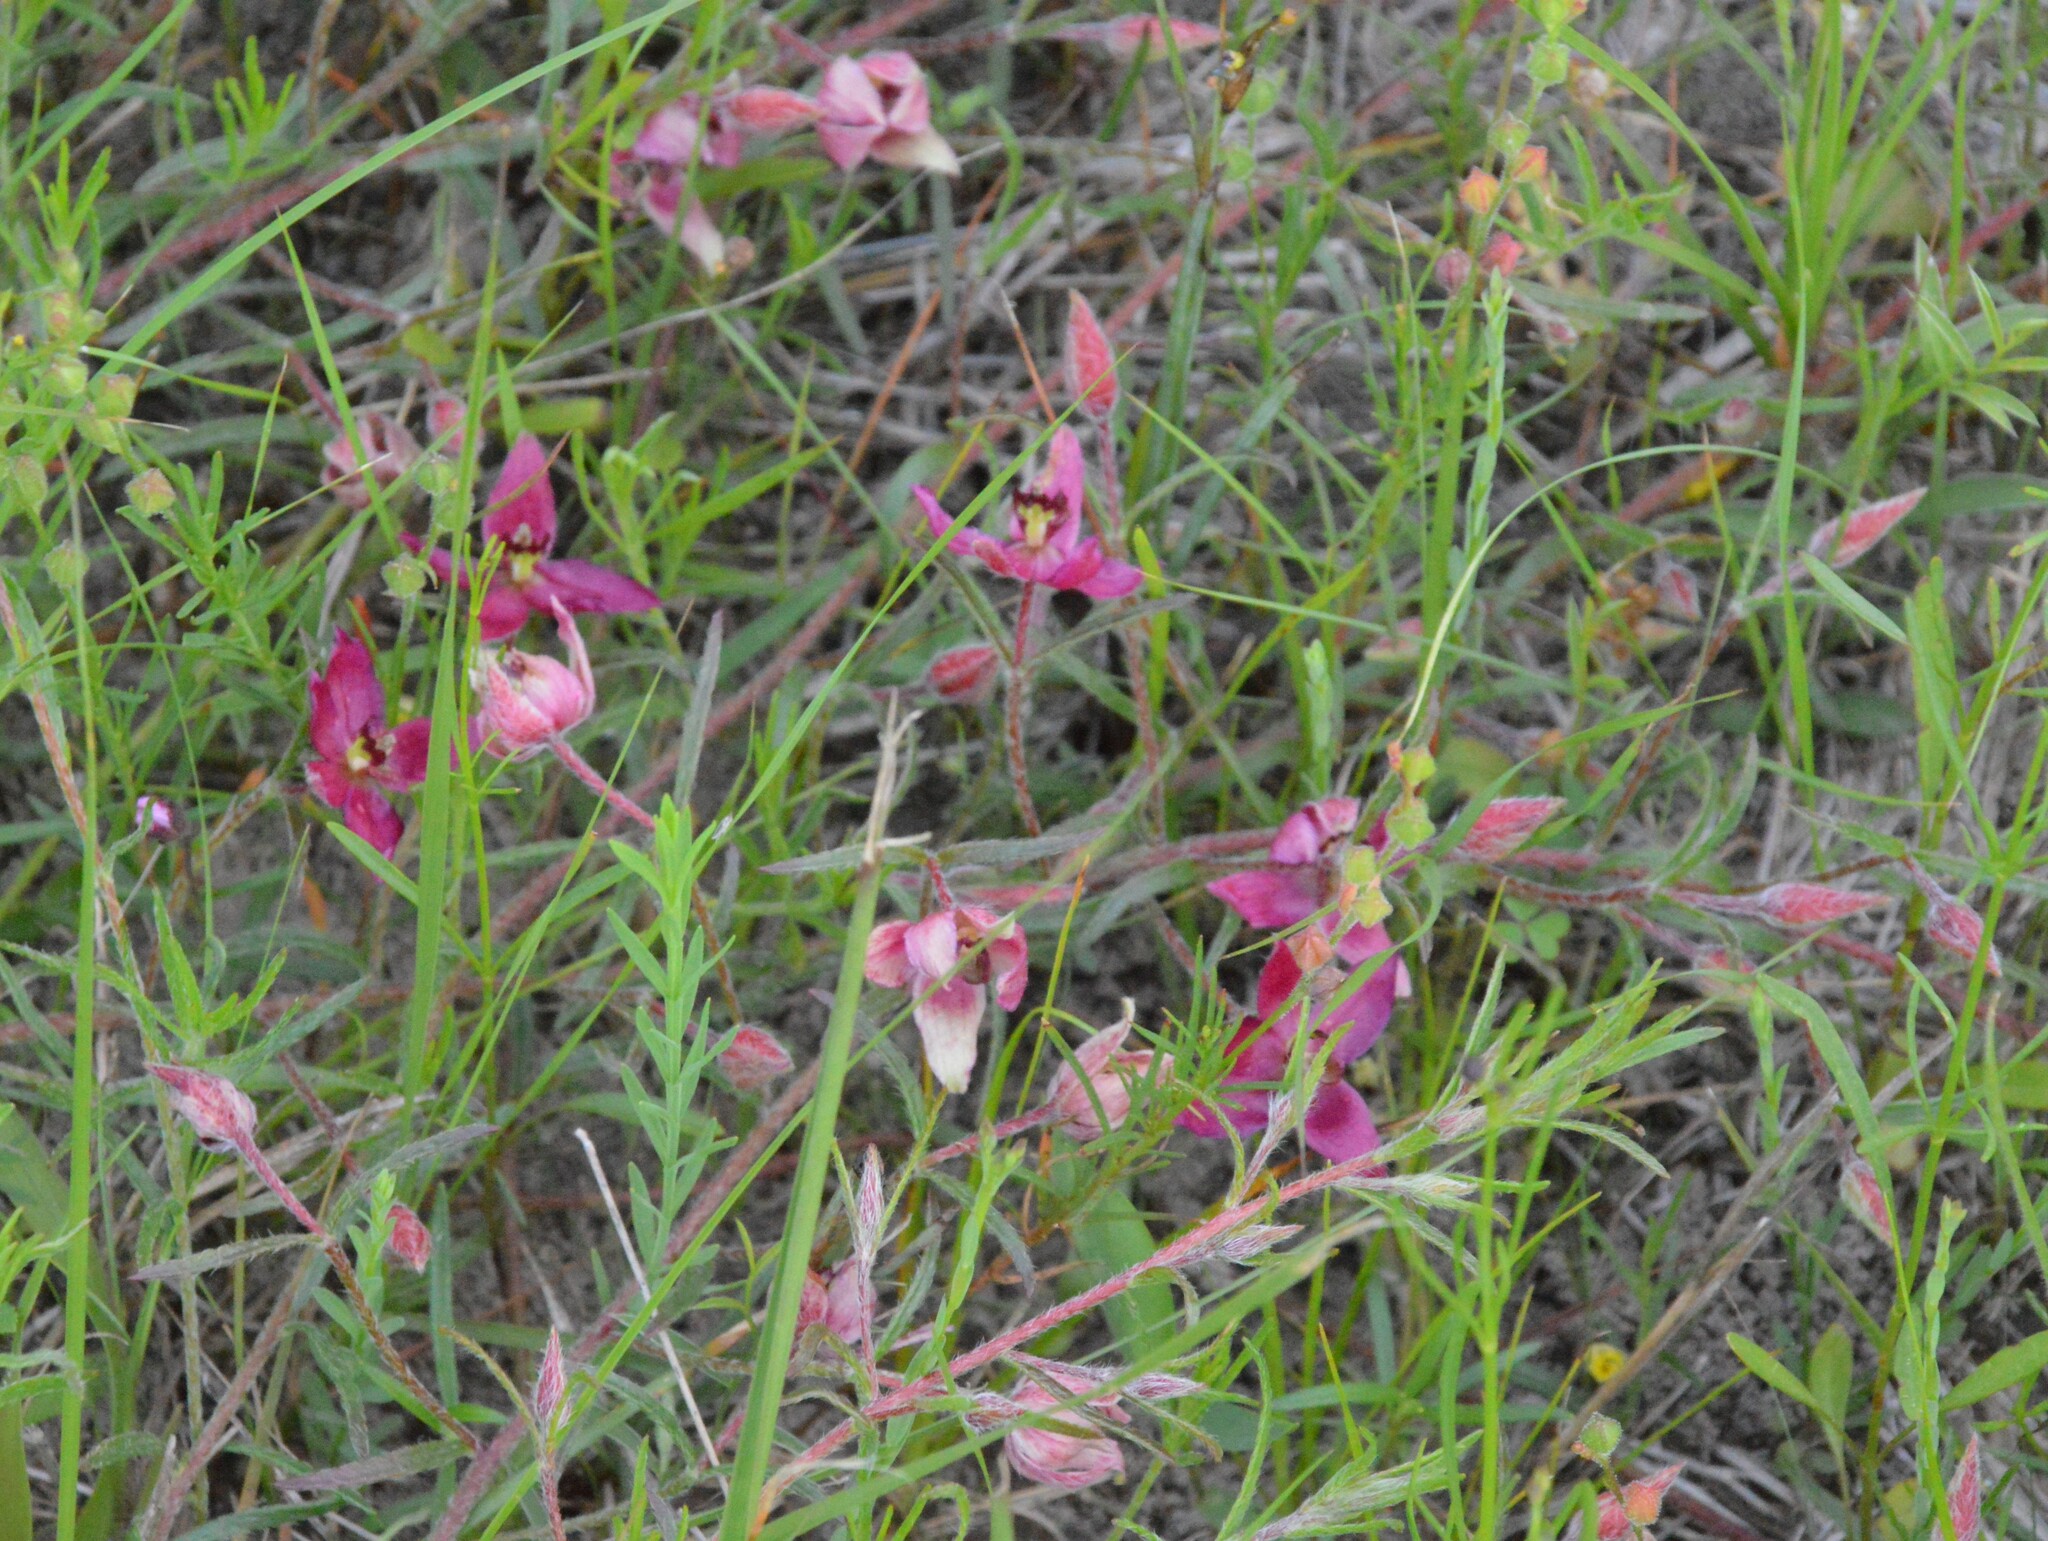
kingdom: Plantae
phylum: Tracheophyta
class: Magnoliopsida
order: Zygophyllales
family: Krameriaceae
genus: Krameria
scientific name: Krameria lanceolata
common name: Ratany
